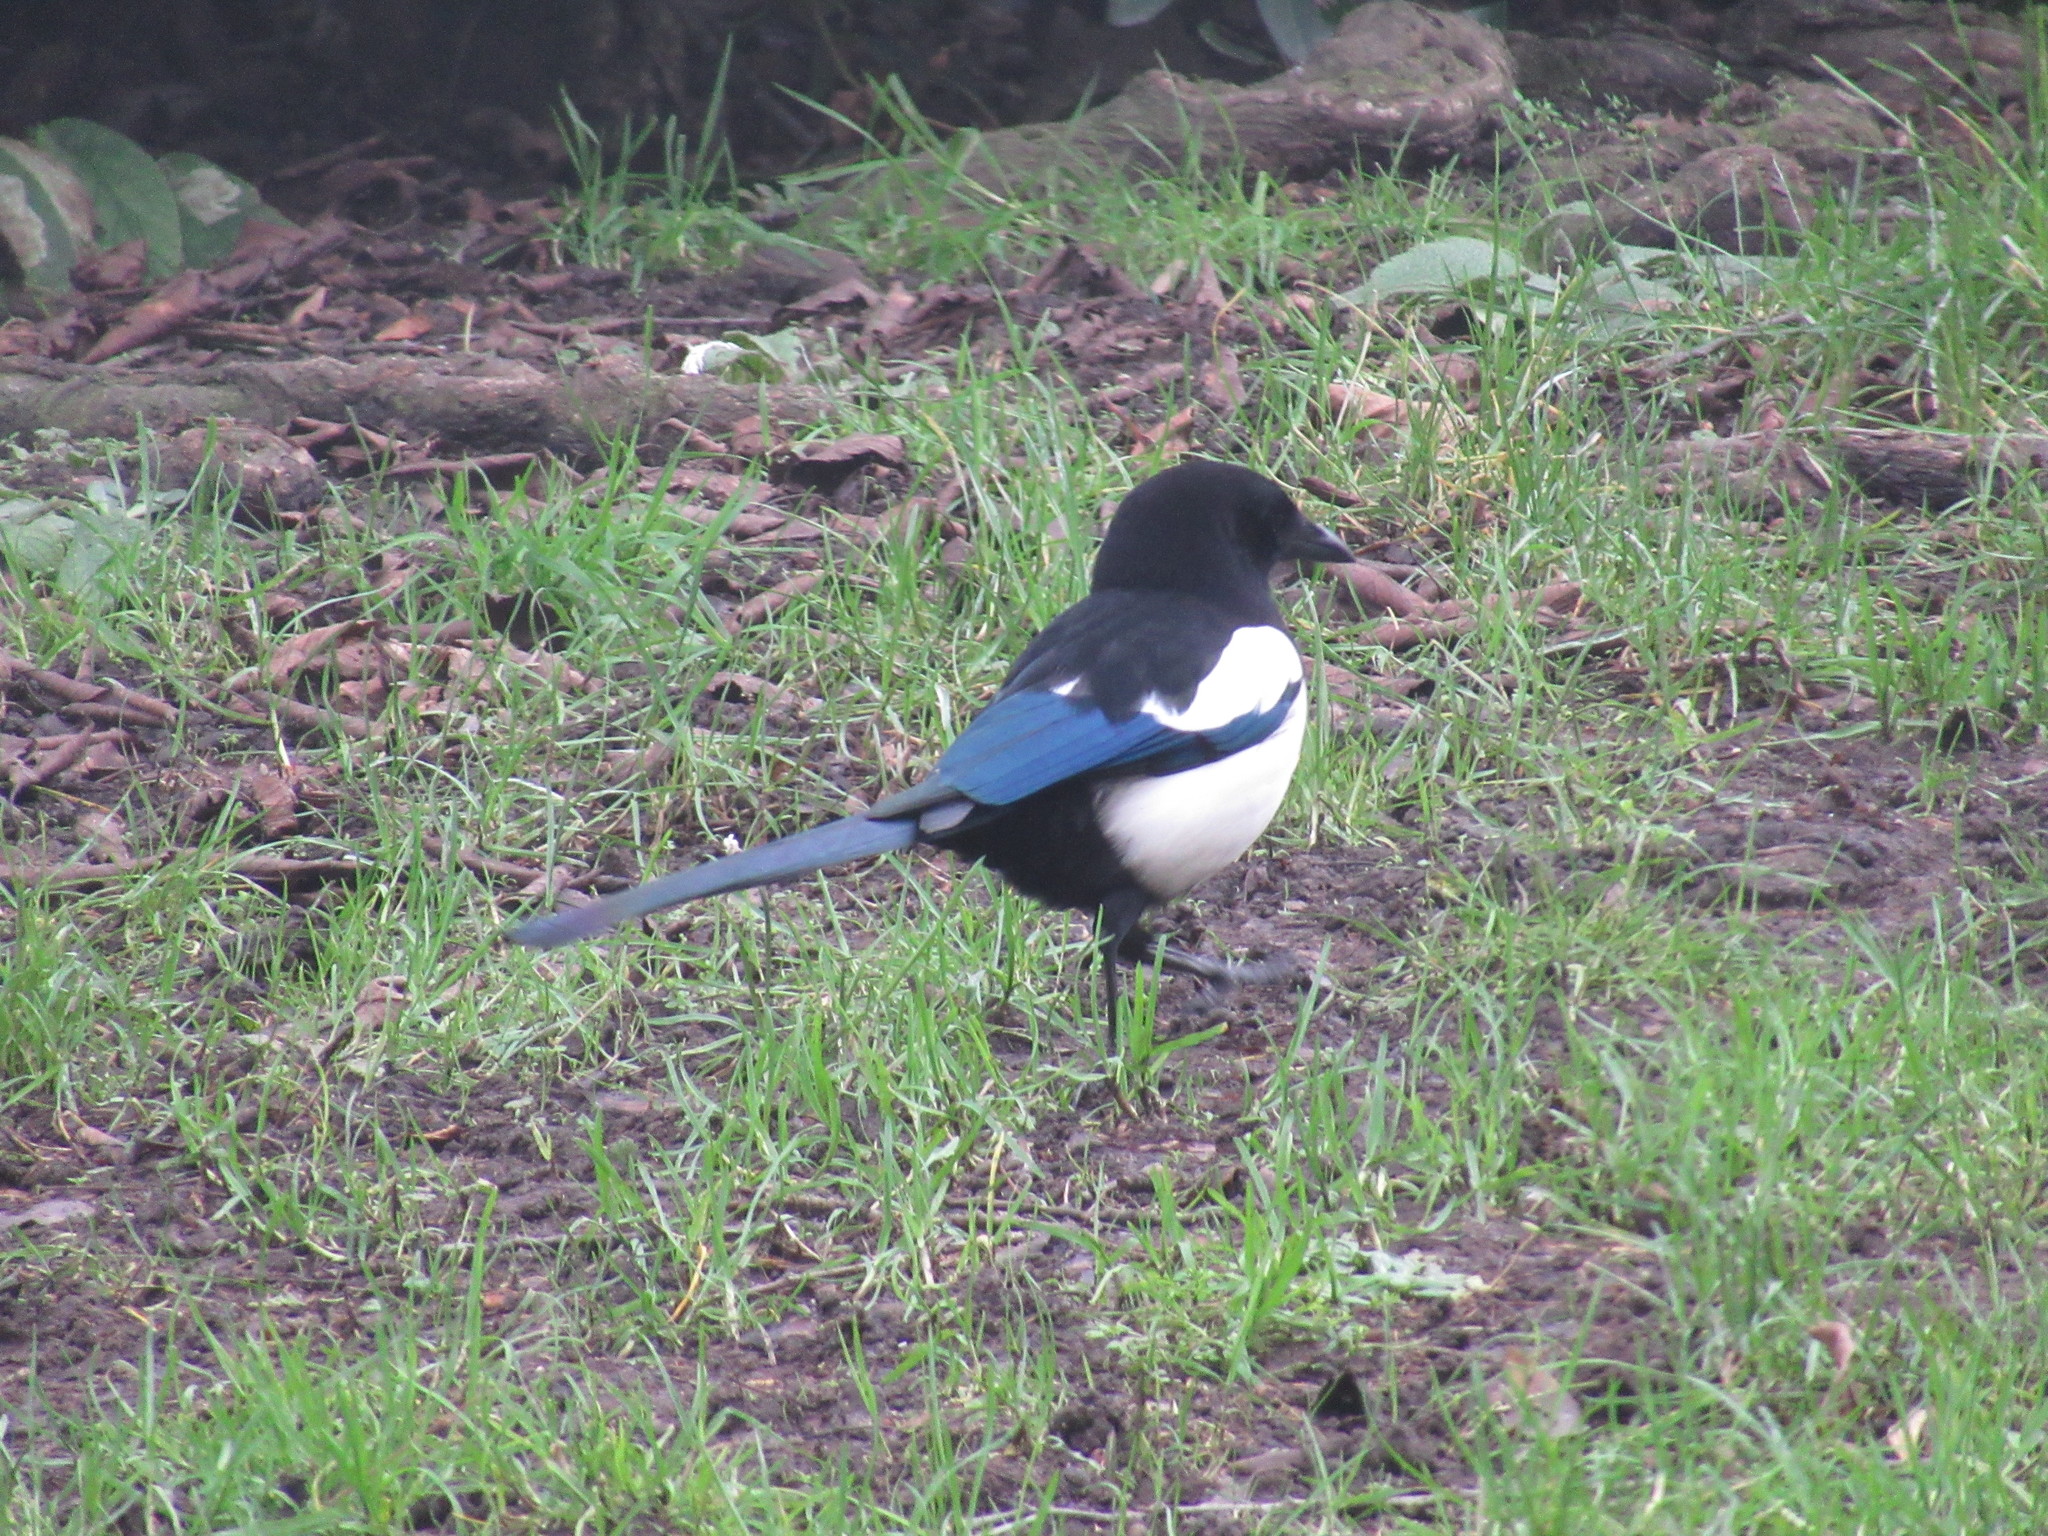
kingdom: Animalia
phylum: Chordata
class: Aves
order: Passeriformes
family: Corvidae
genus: Pica
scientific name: Pica pica
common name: Eurasian magpie
